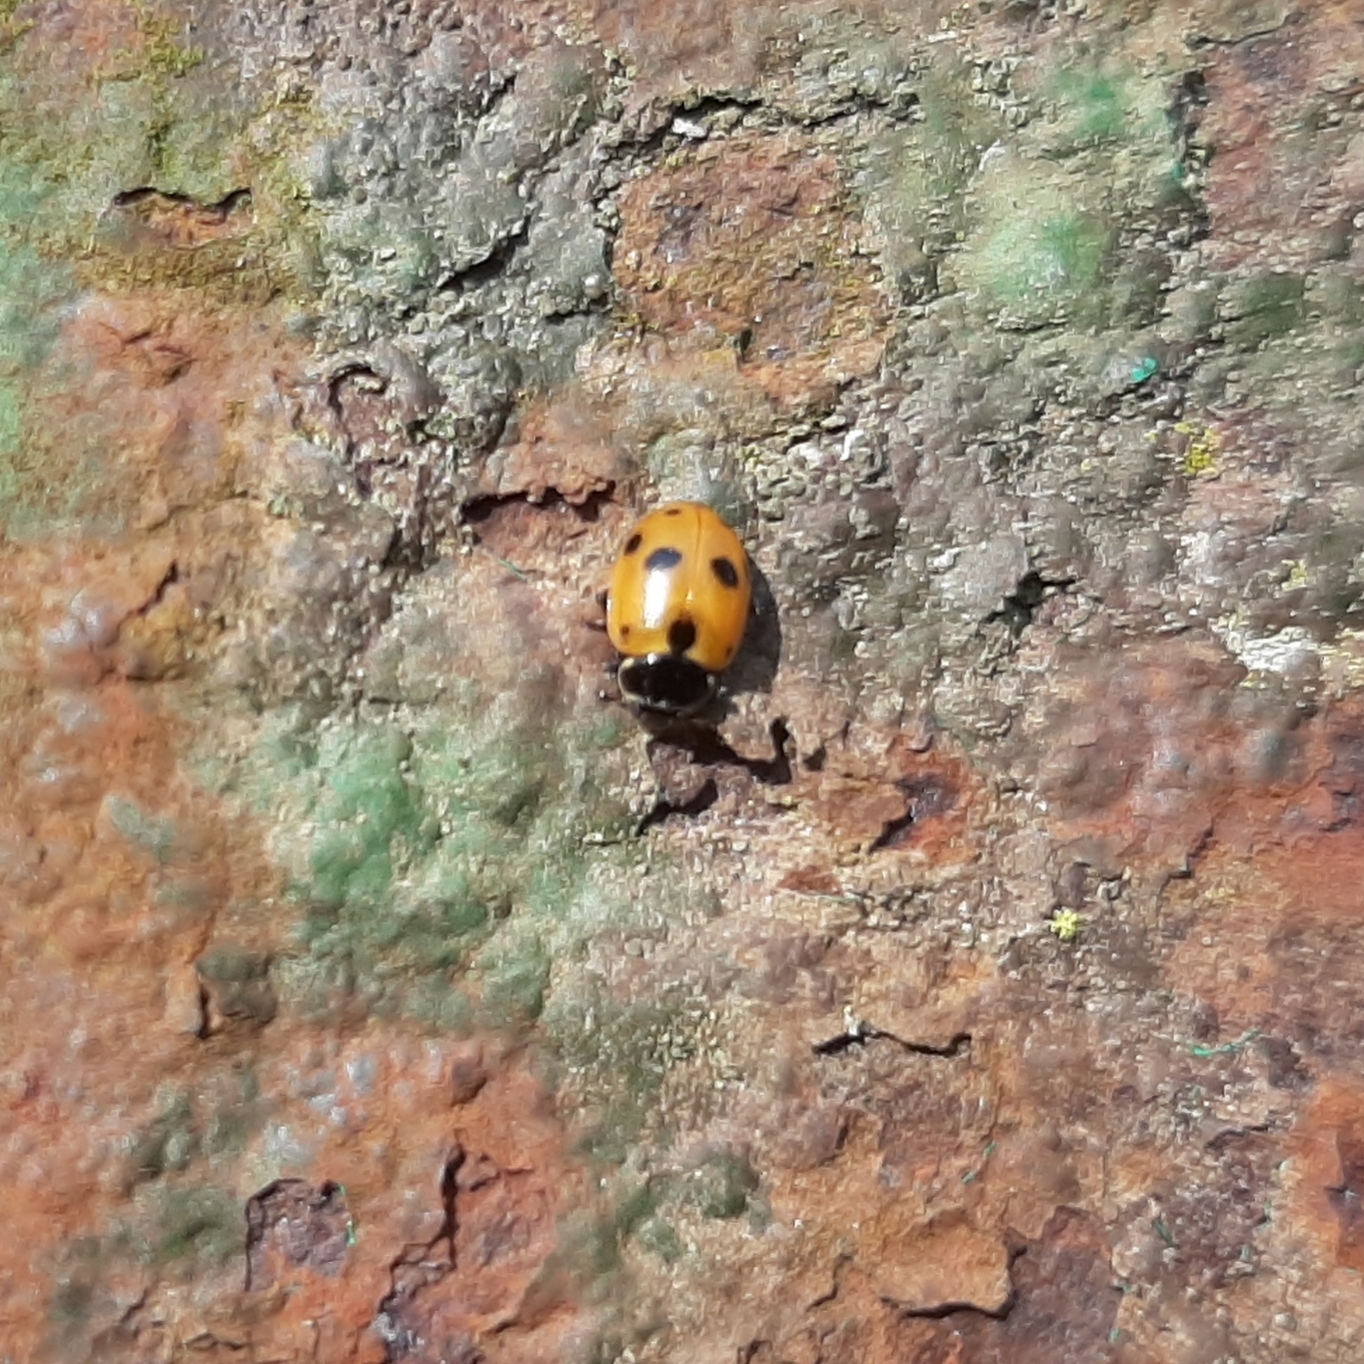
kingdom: Animalia
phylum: Arthropoda
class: Insecta
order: Coleoptera
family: Coccinellidae
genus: Hippodamia
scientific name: Hippodamia variegata
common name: Ladybird beetle
